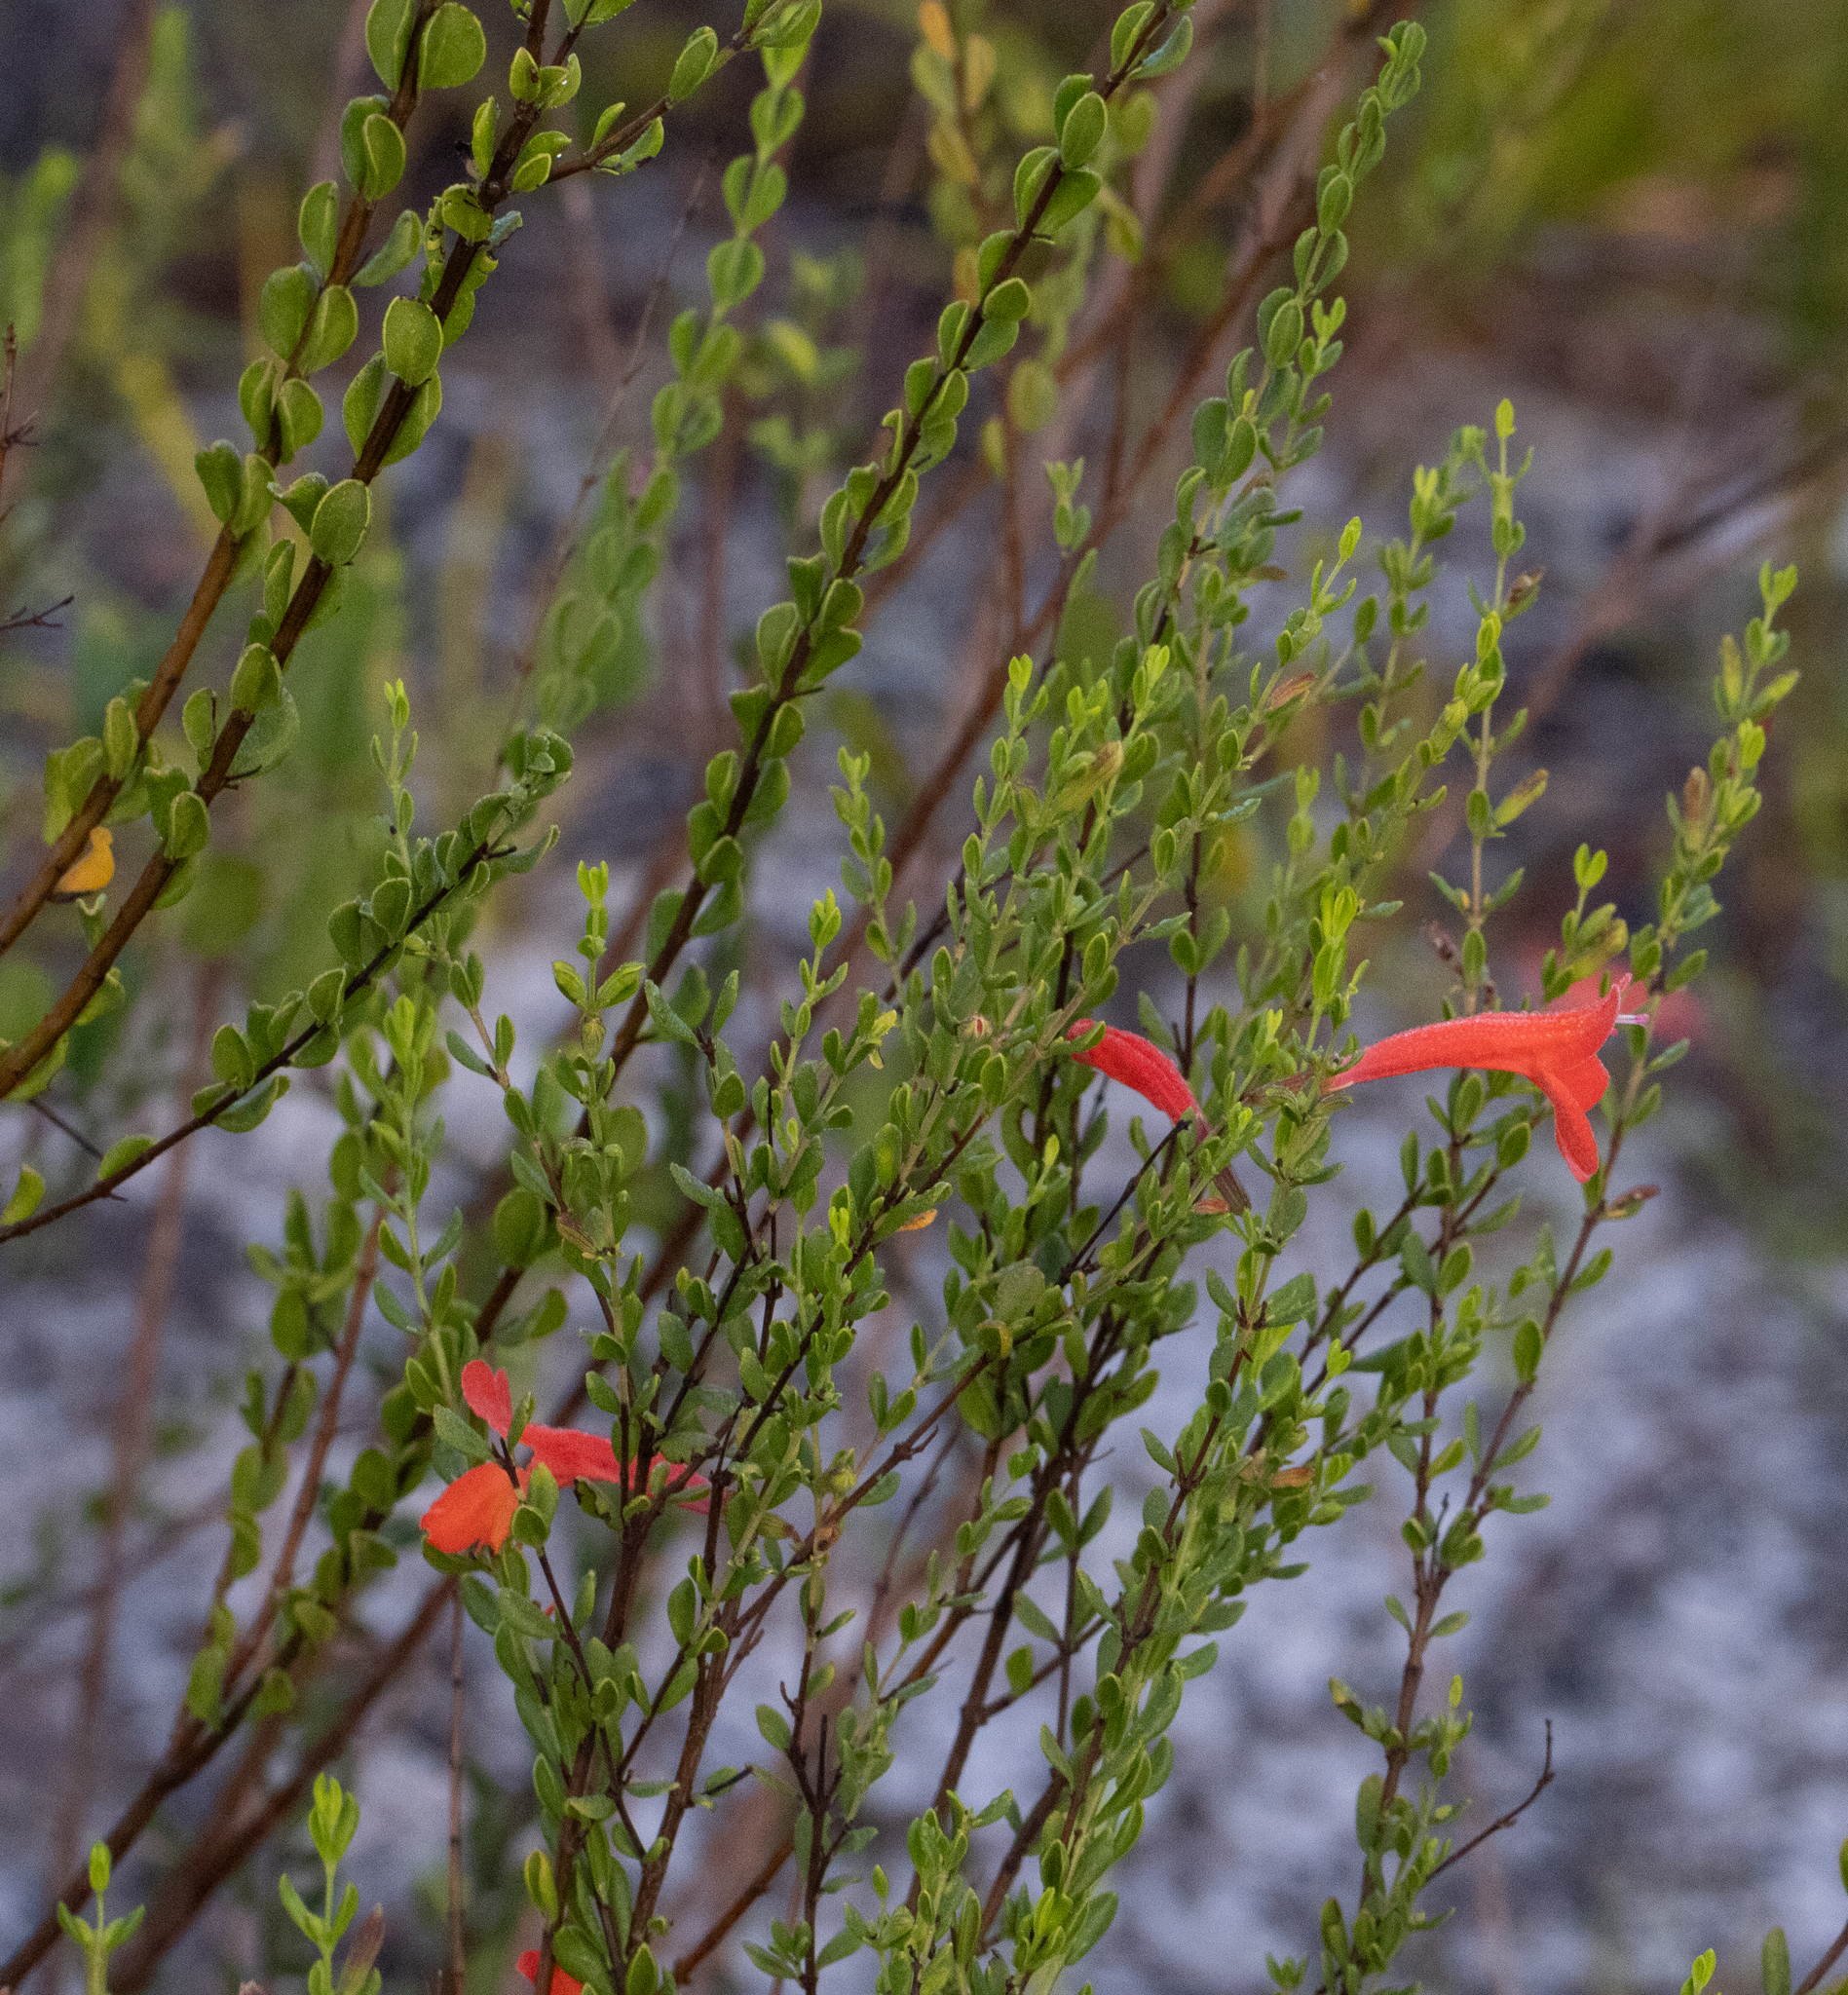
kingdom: Plantae
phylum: Tracheophyta
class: Magnoliopsida
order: Lamiales
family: Lamiaceae
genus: Clinopodium
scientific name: Clinopodium coccineum
